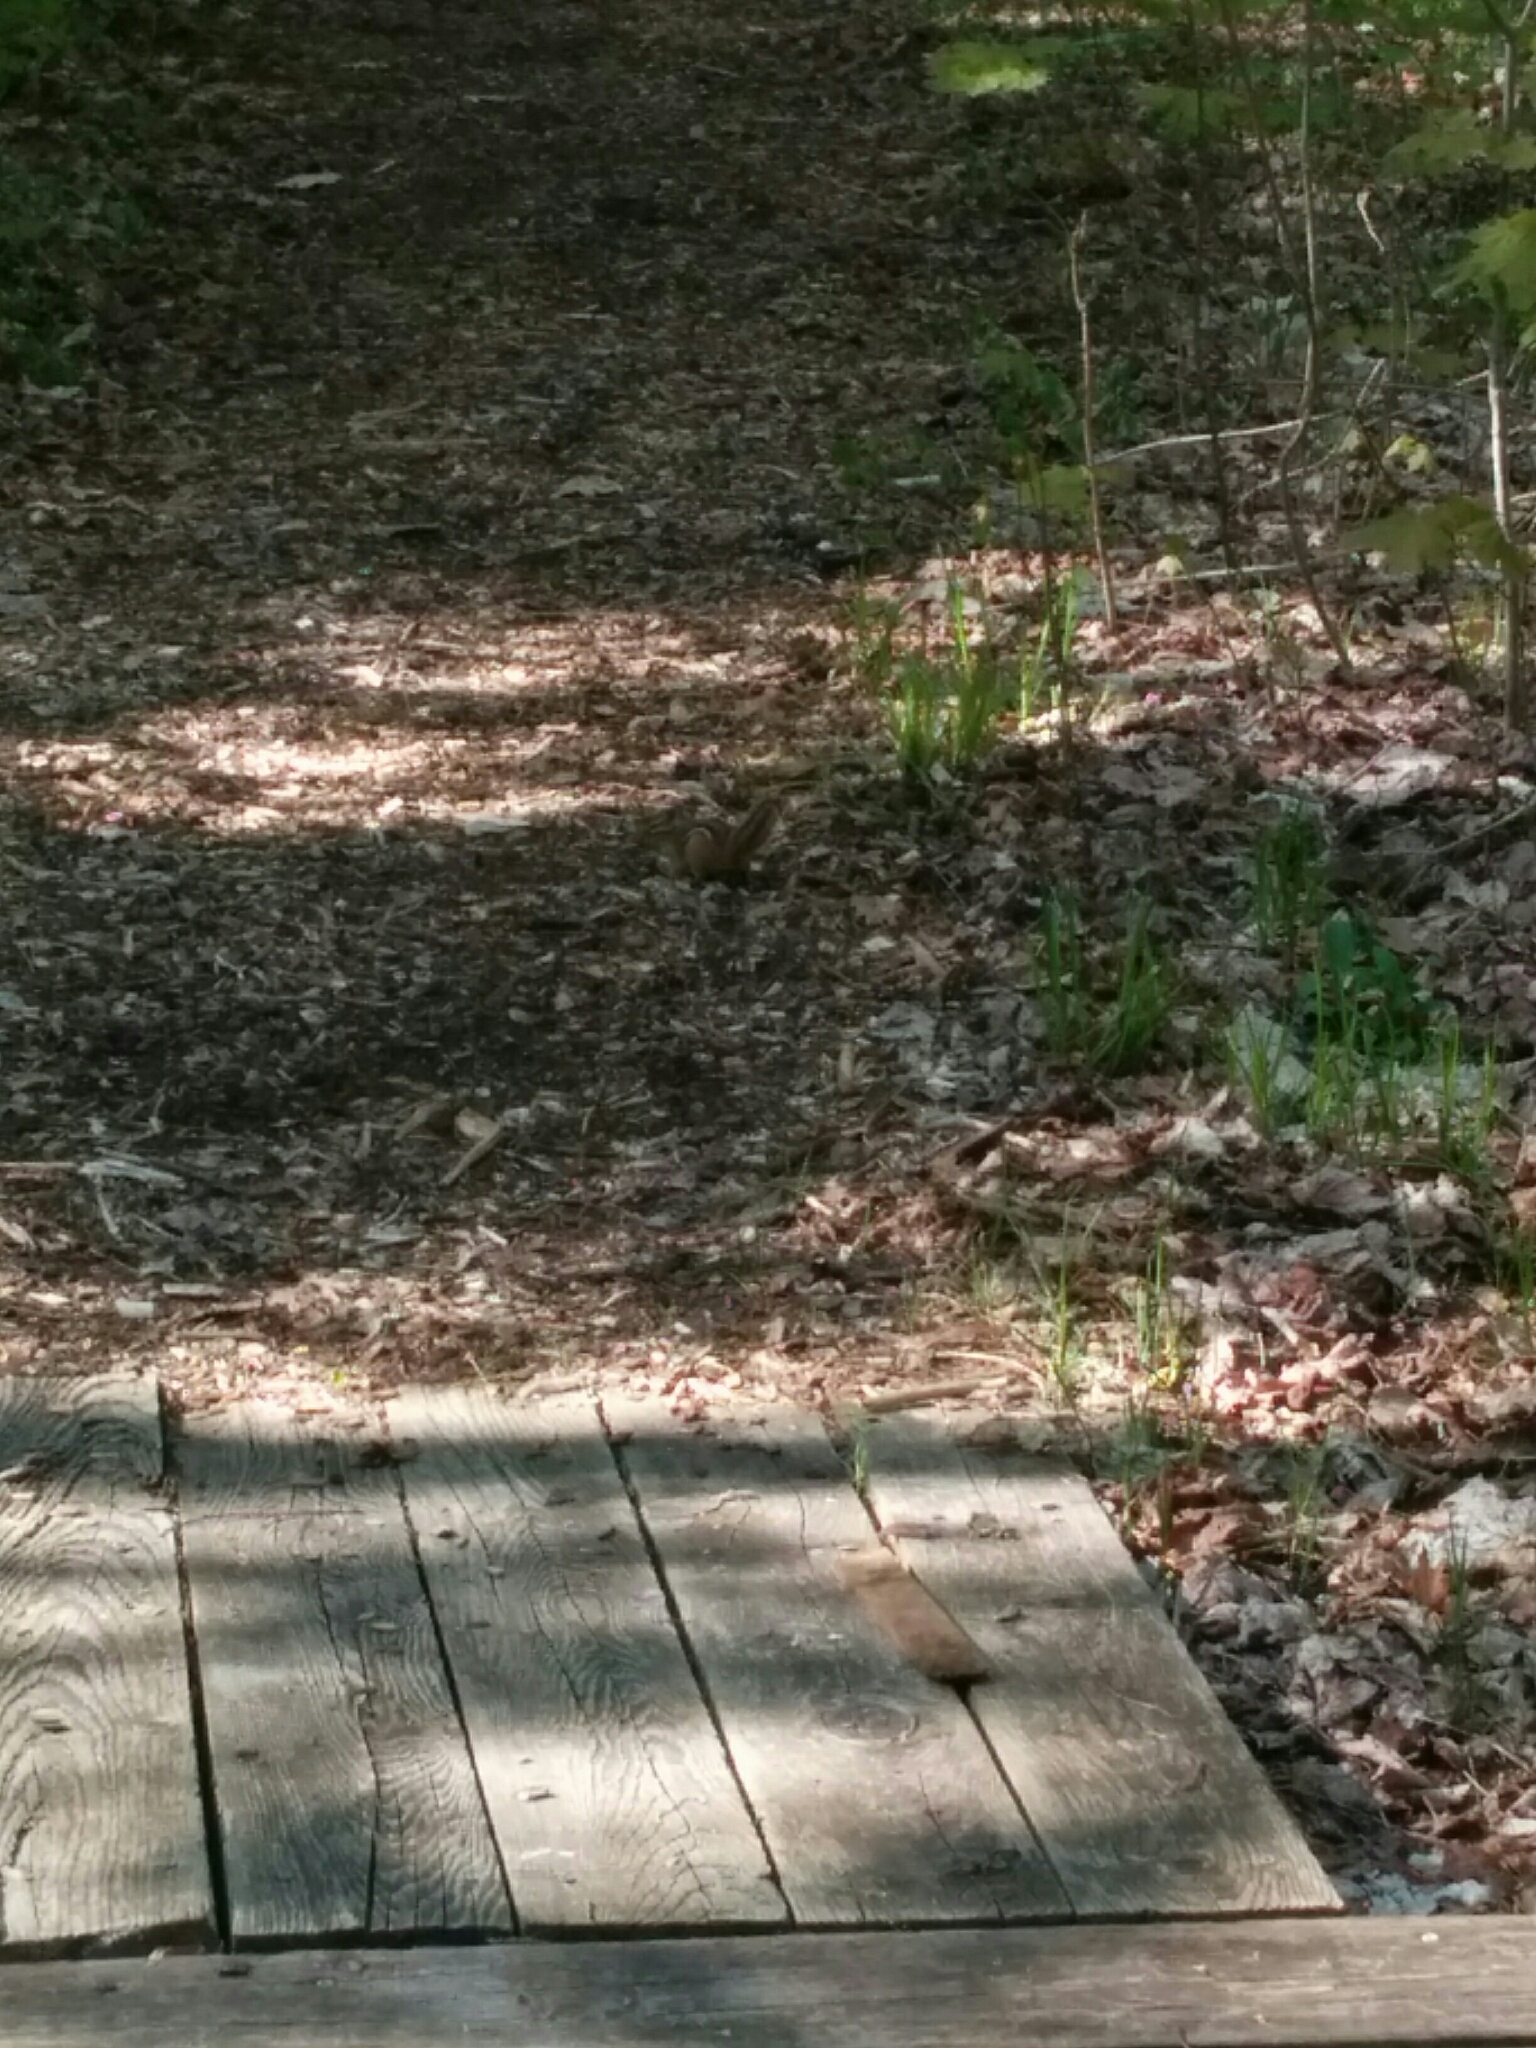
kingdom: Animalia
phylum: Chordata
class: Mammalia
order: Rodentia
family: Sciuridae
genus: Tamias
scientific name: Tamias striatus
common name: Eastern chipmunk
